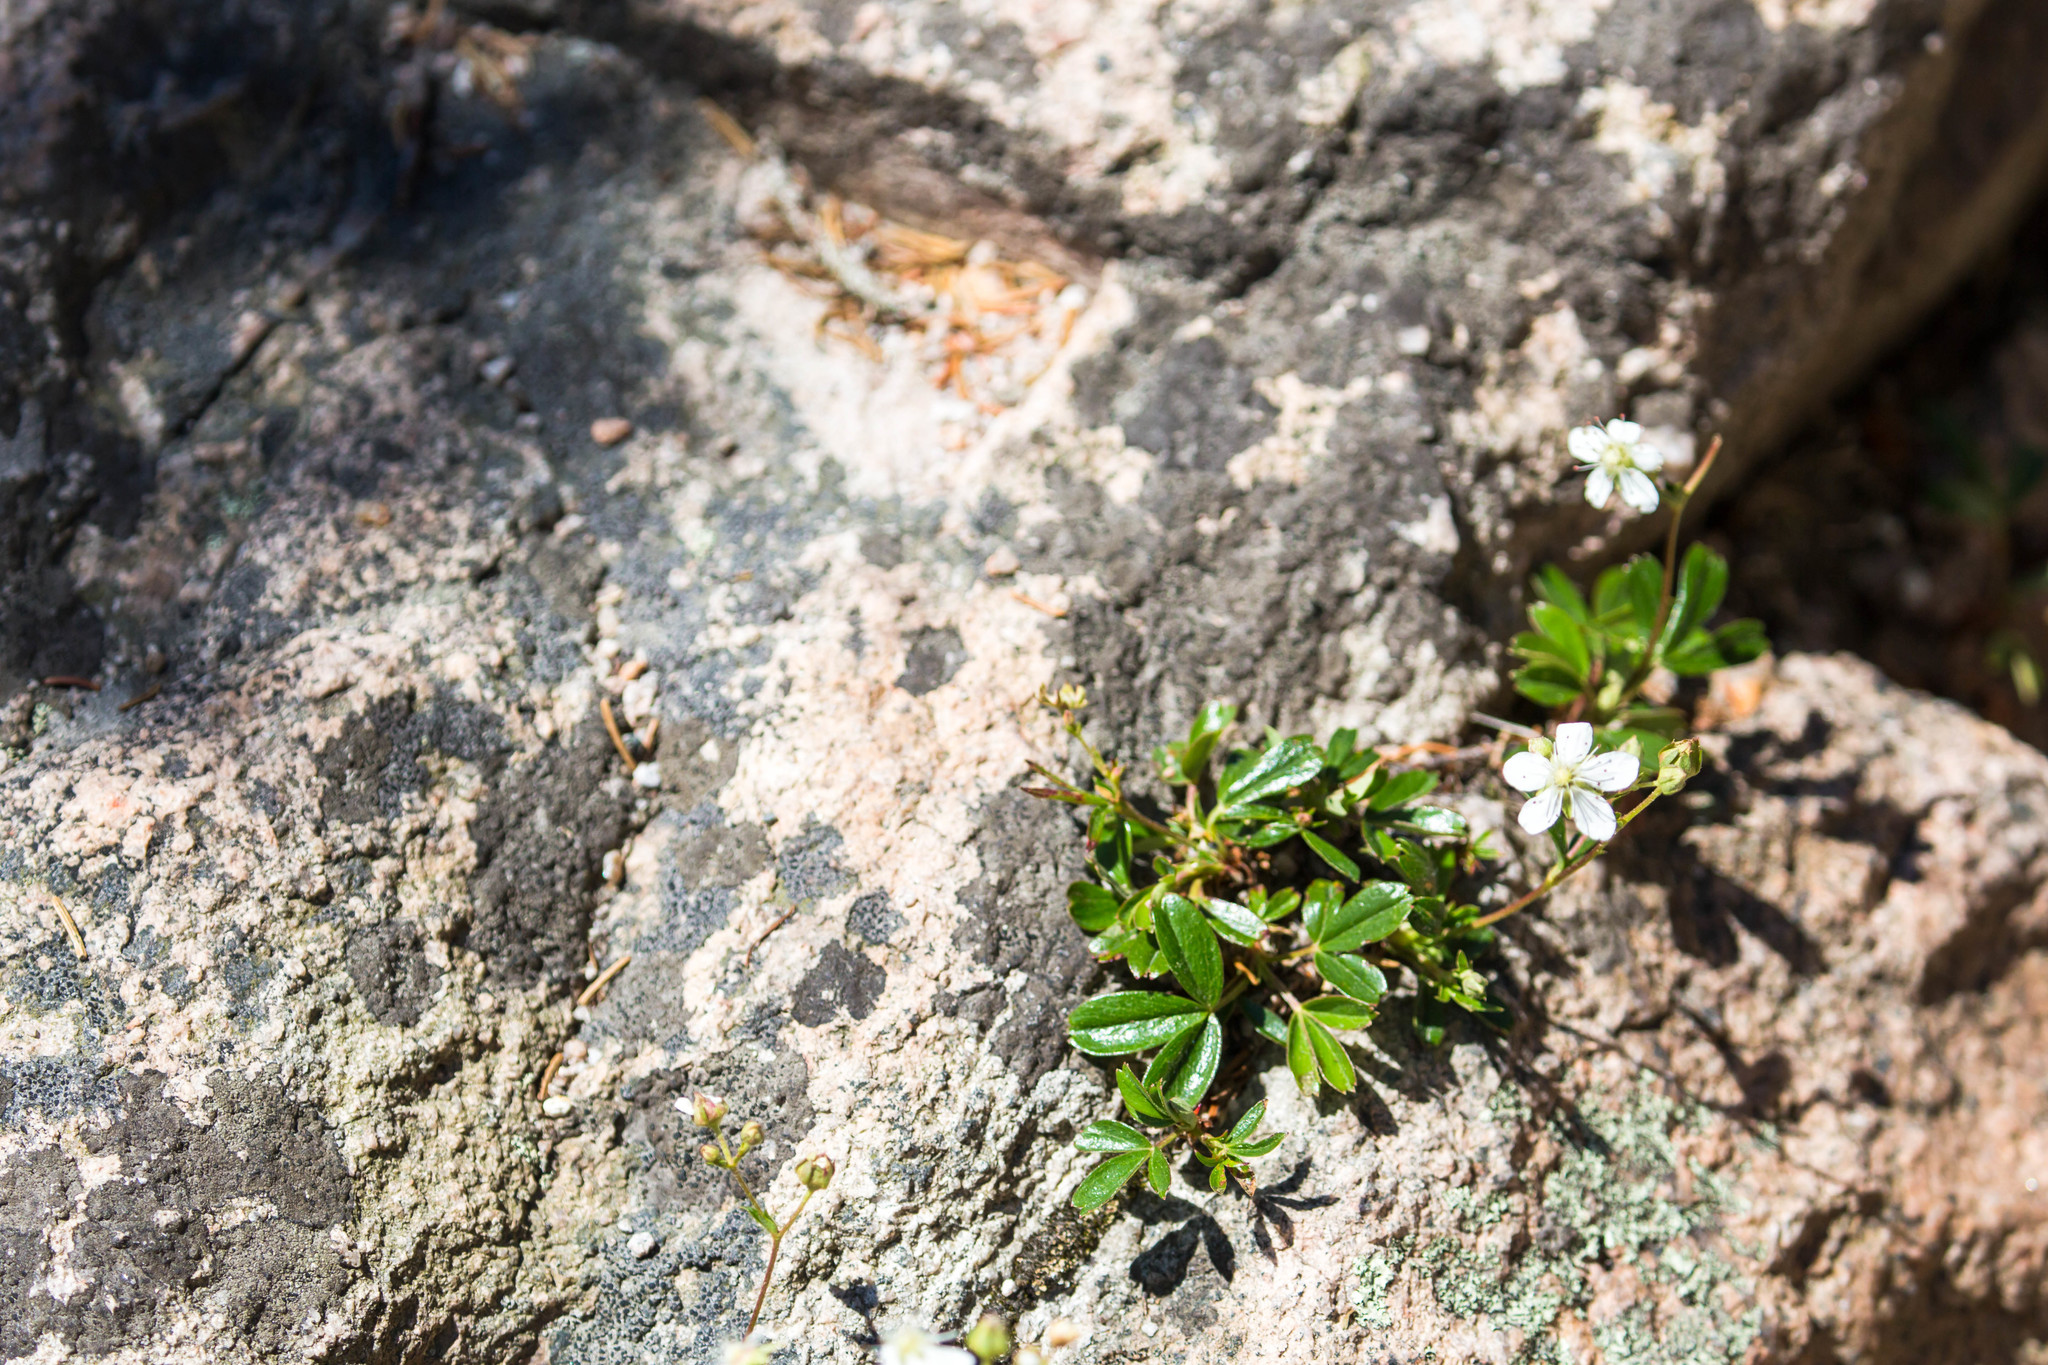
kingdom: Plantae
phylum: Tracheophyta
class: Magnoliopsida
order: Rosales
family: Rosaceae
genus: Sibbaldia
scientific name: Sibbaldia tridentata
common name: Three-toothed cinquefoil
